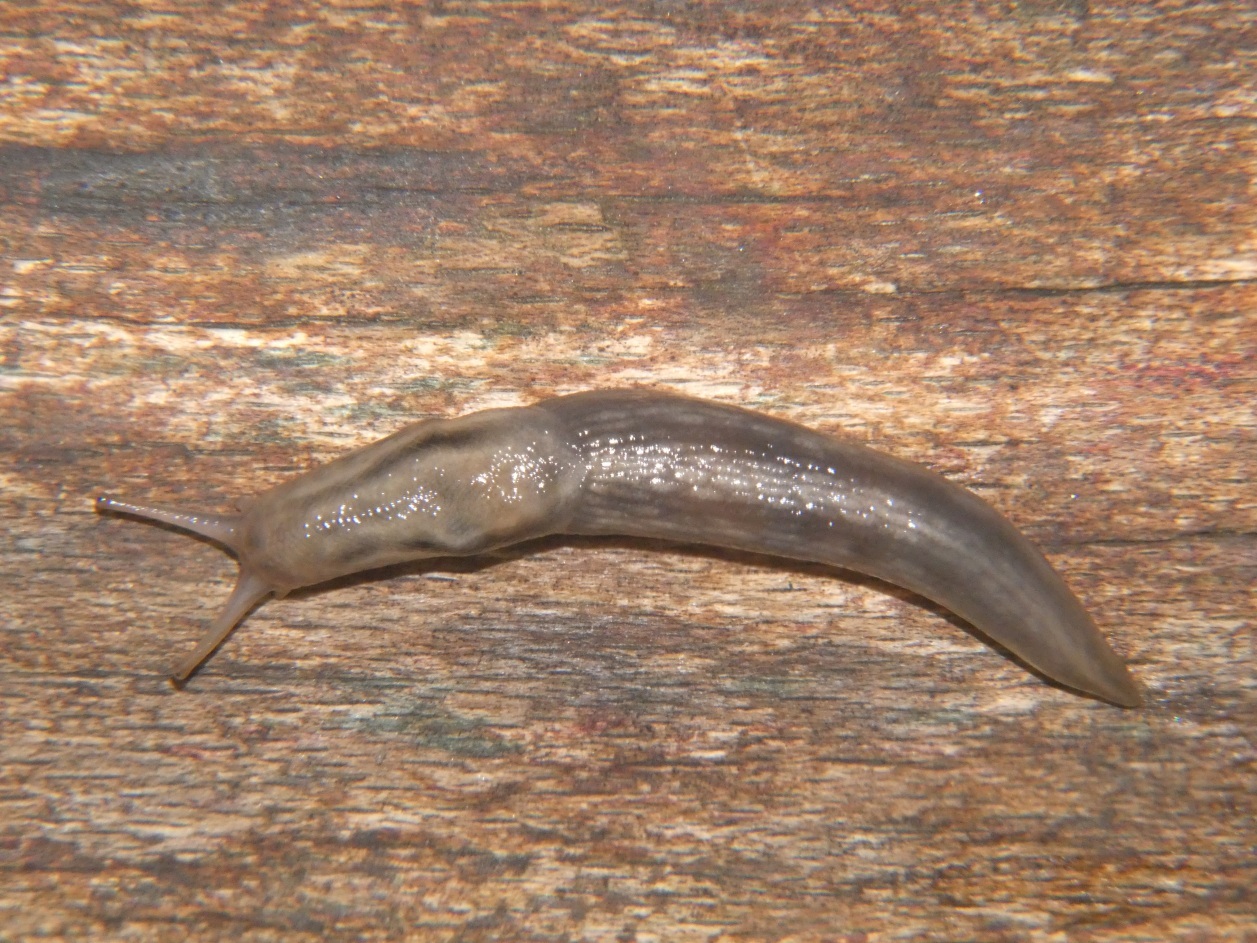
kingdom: Animalia
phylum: Mollusca
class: Gastropoda
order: Stylommatophora
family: Limacidae
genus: Lehmannia
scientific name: Lehmannia marginata
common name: Tree slug
